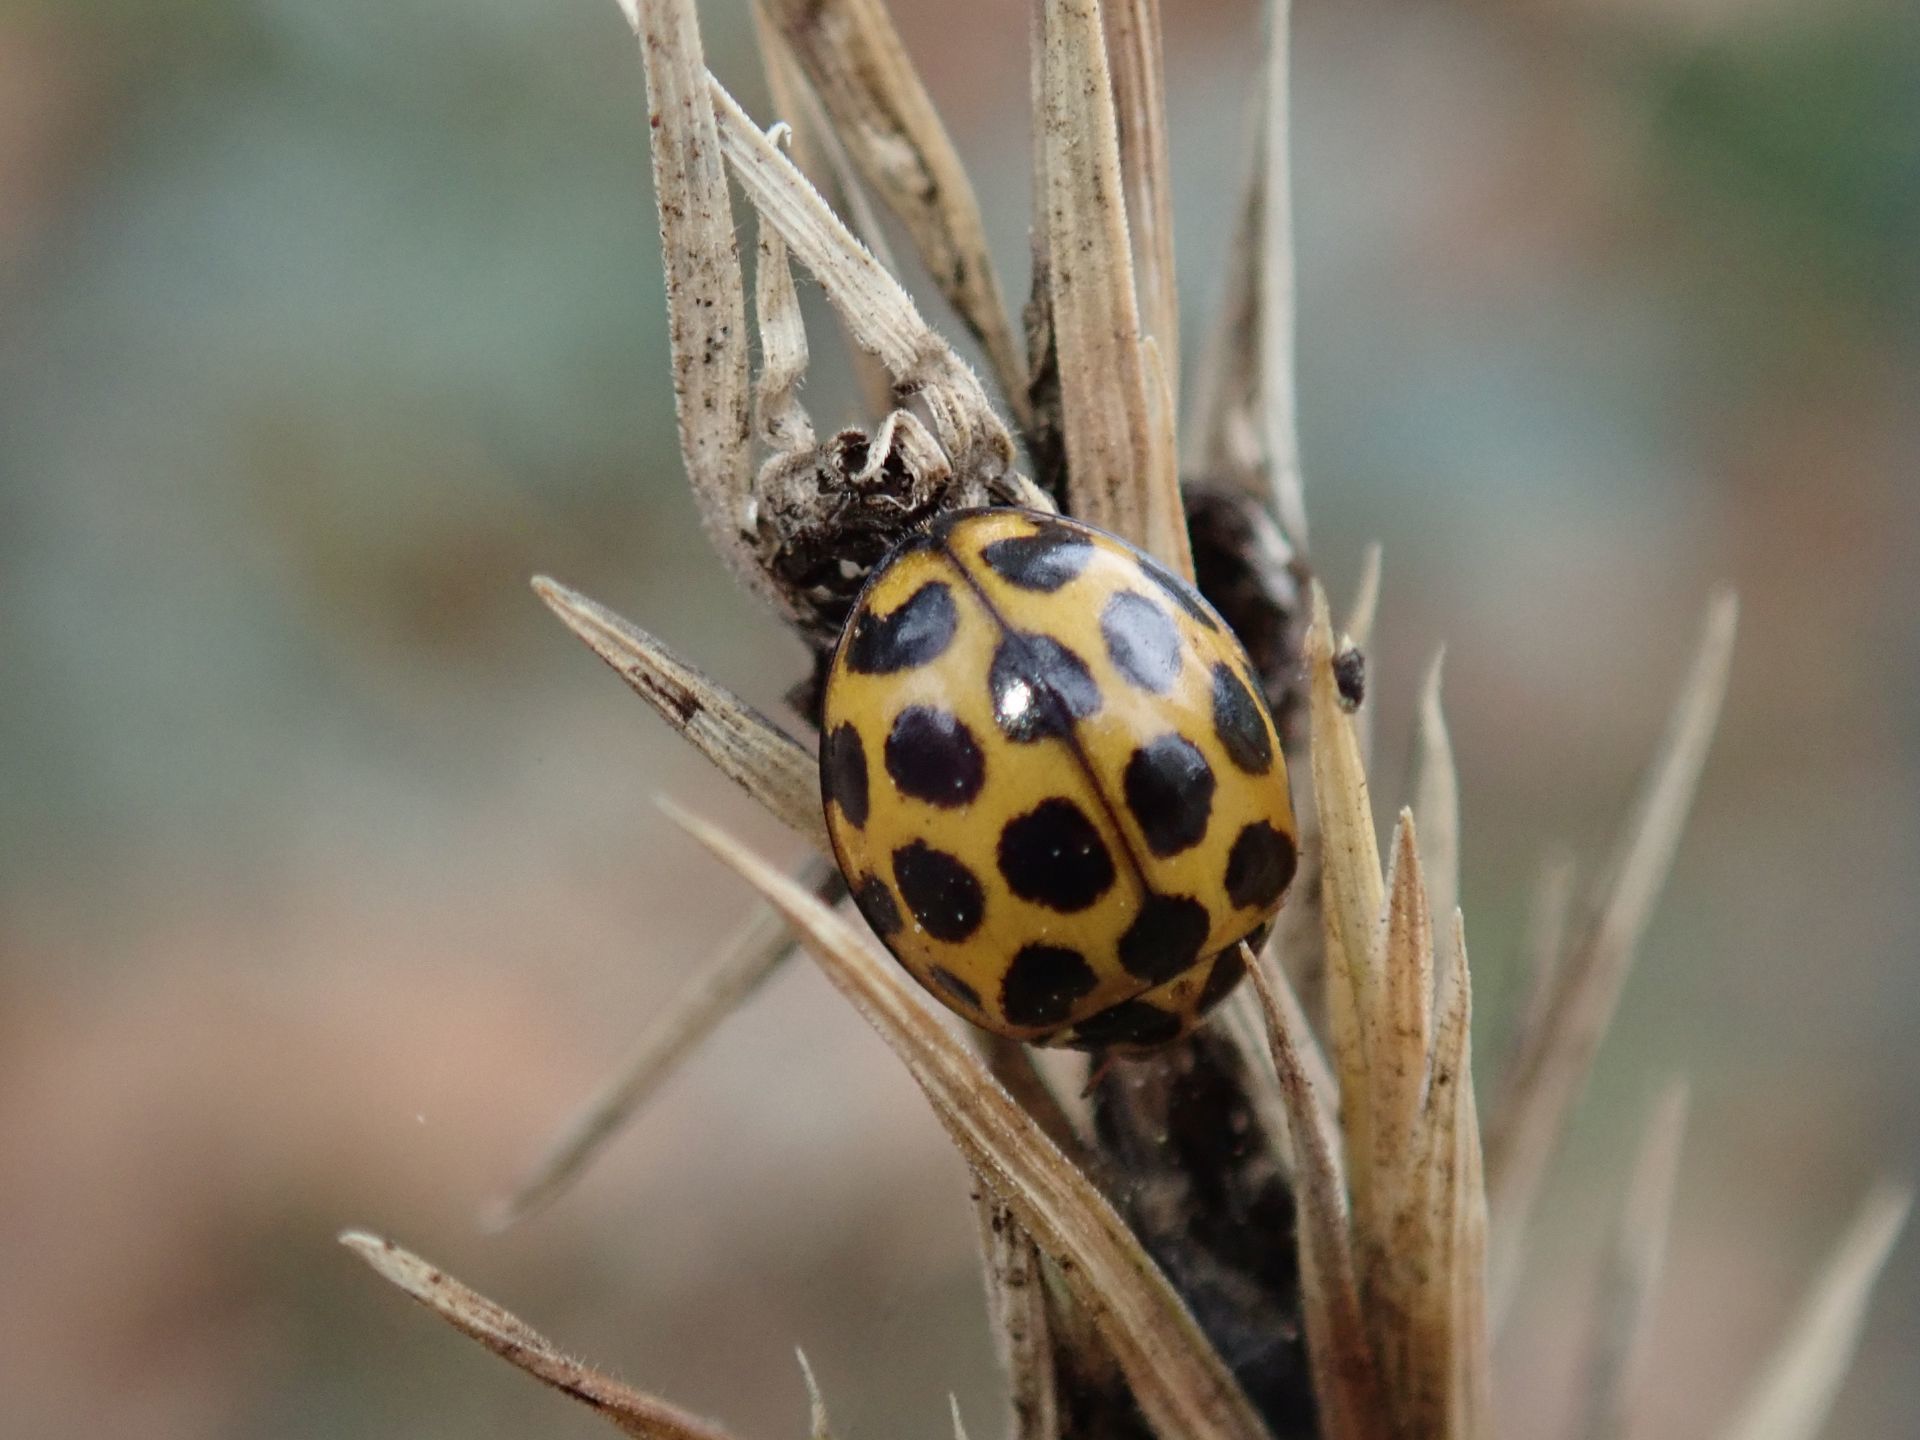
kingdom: Animalia
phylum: Arthropoda
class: Insecta
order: Coleoptera
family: Coccinellidae
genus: Harmonia
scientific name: Harmonia conformis
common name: Common spotted ladybird beetle
